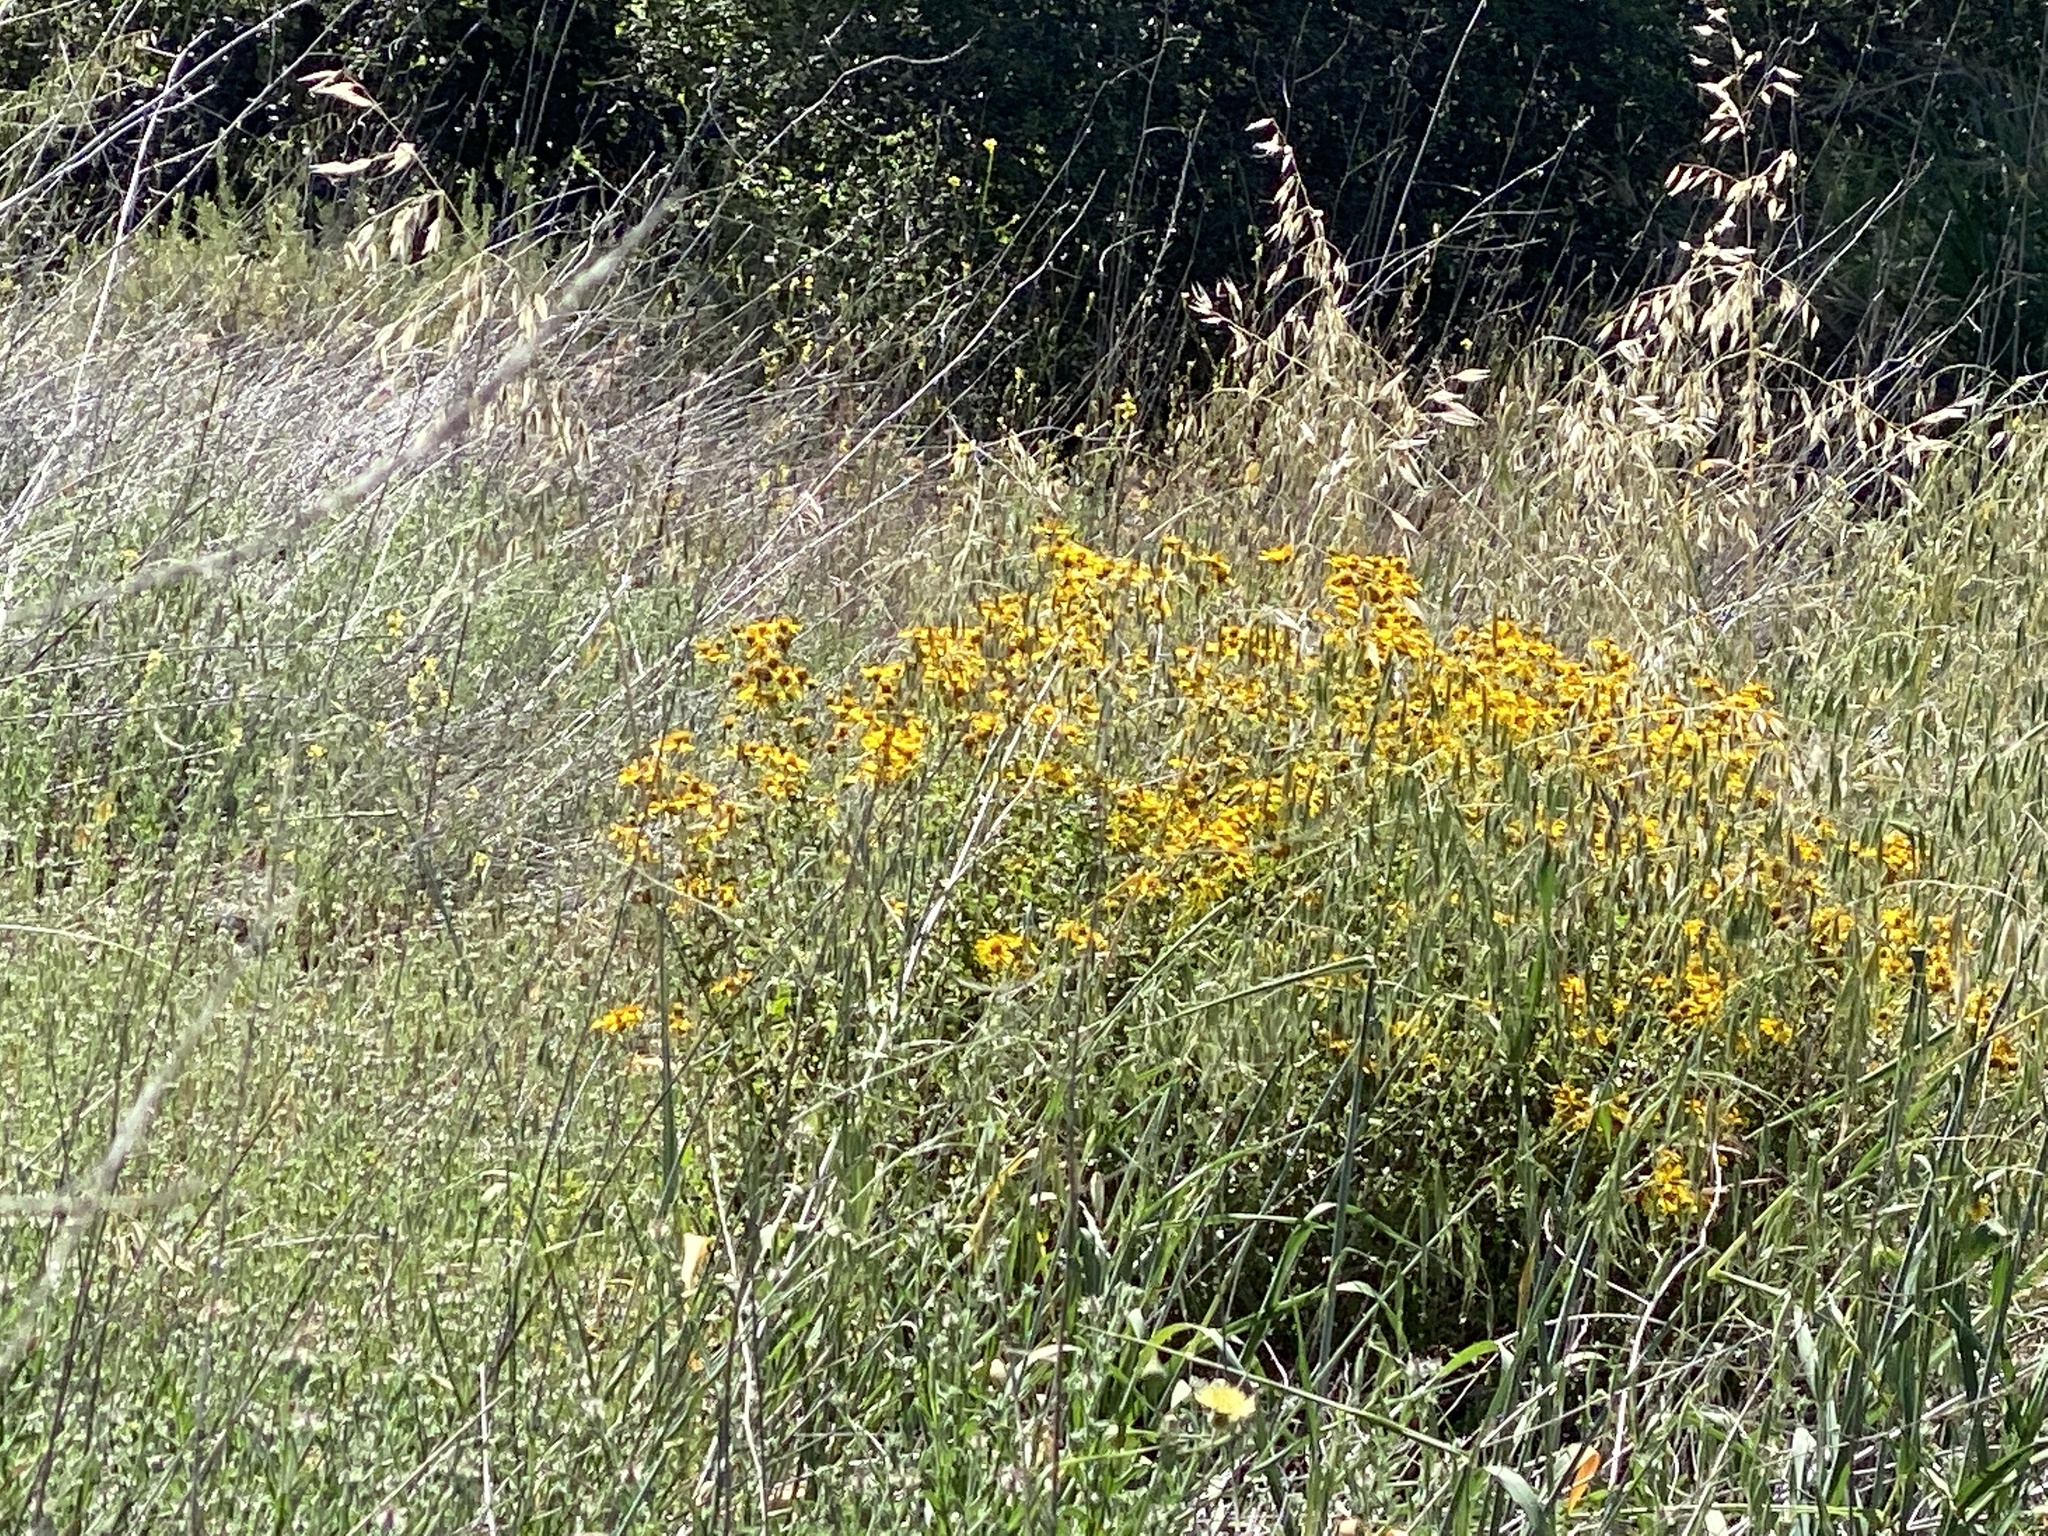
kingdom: Plantae
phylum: Tracheophyta
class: Magnoliopsida
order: Asterales
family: Asteraceae
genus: Bahiopsis
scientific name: Bahiopsis laciniata
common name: San diego county viguiera
